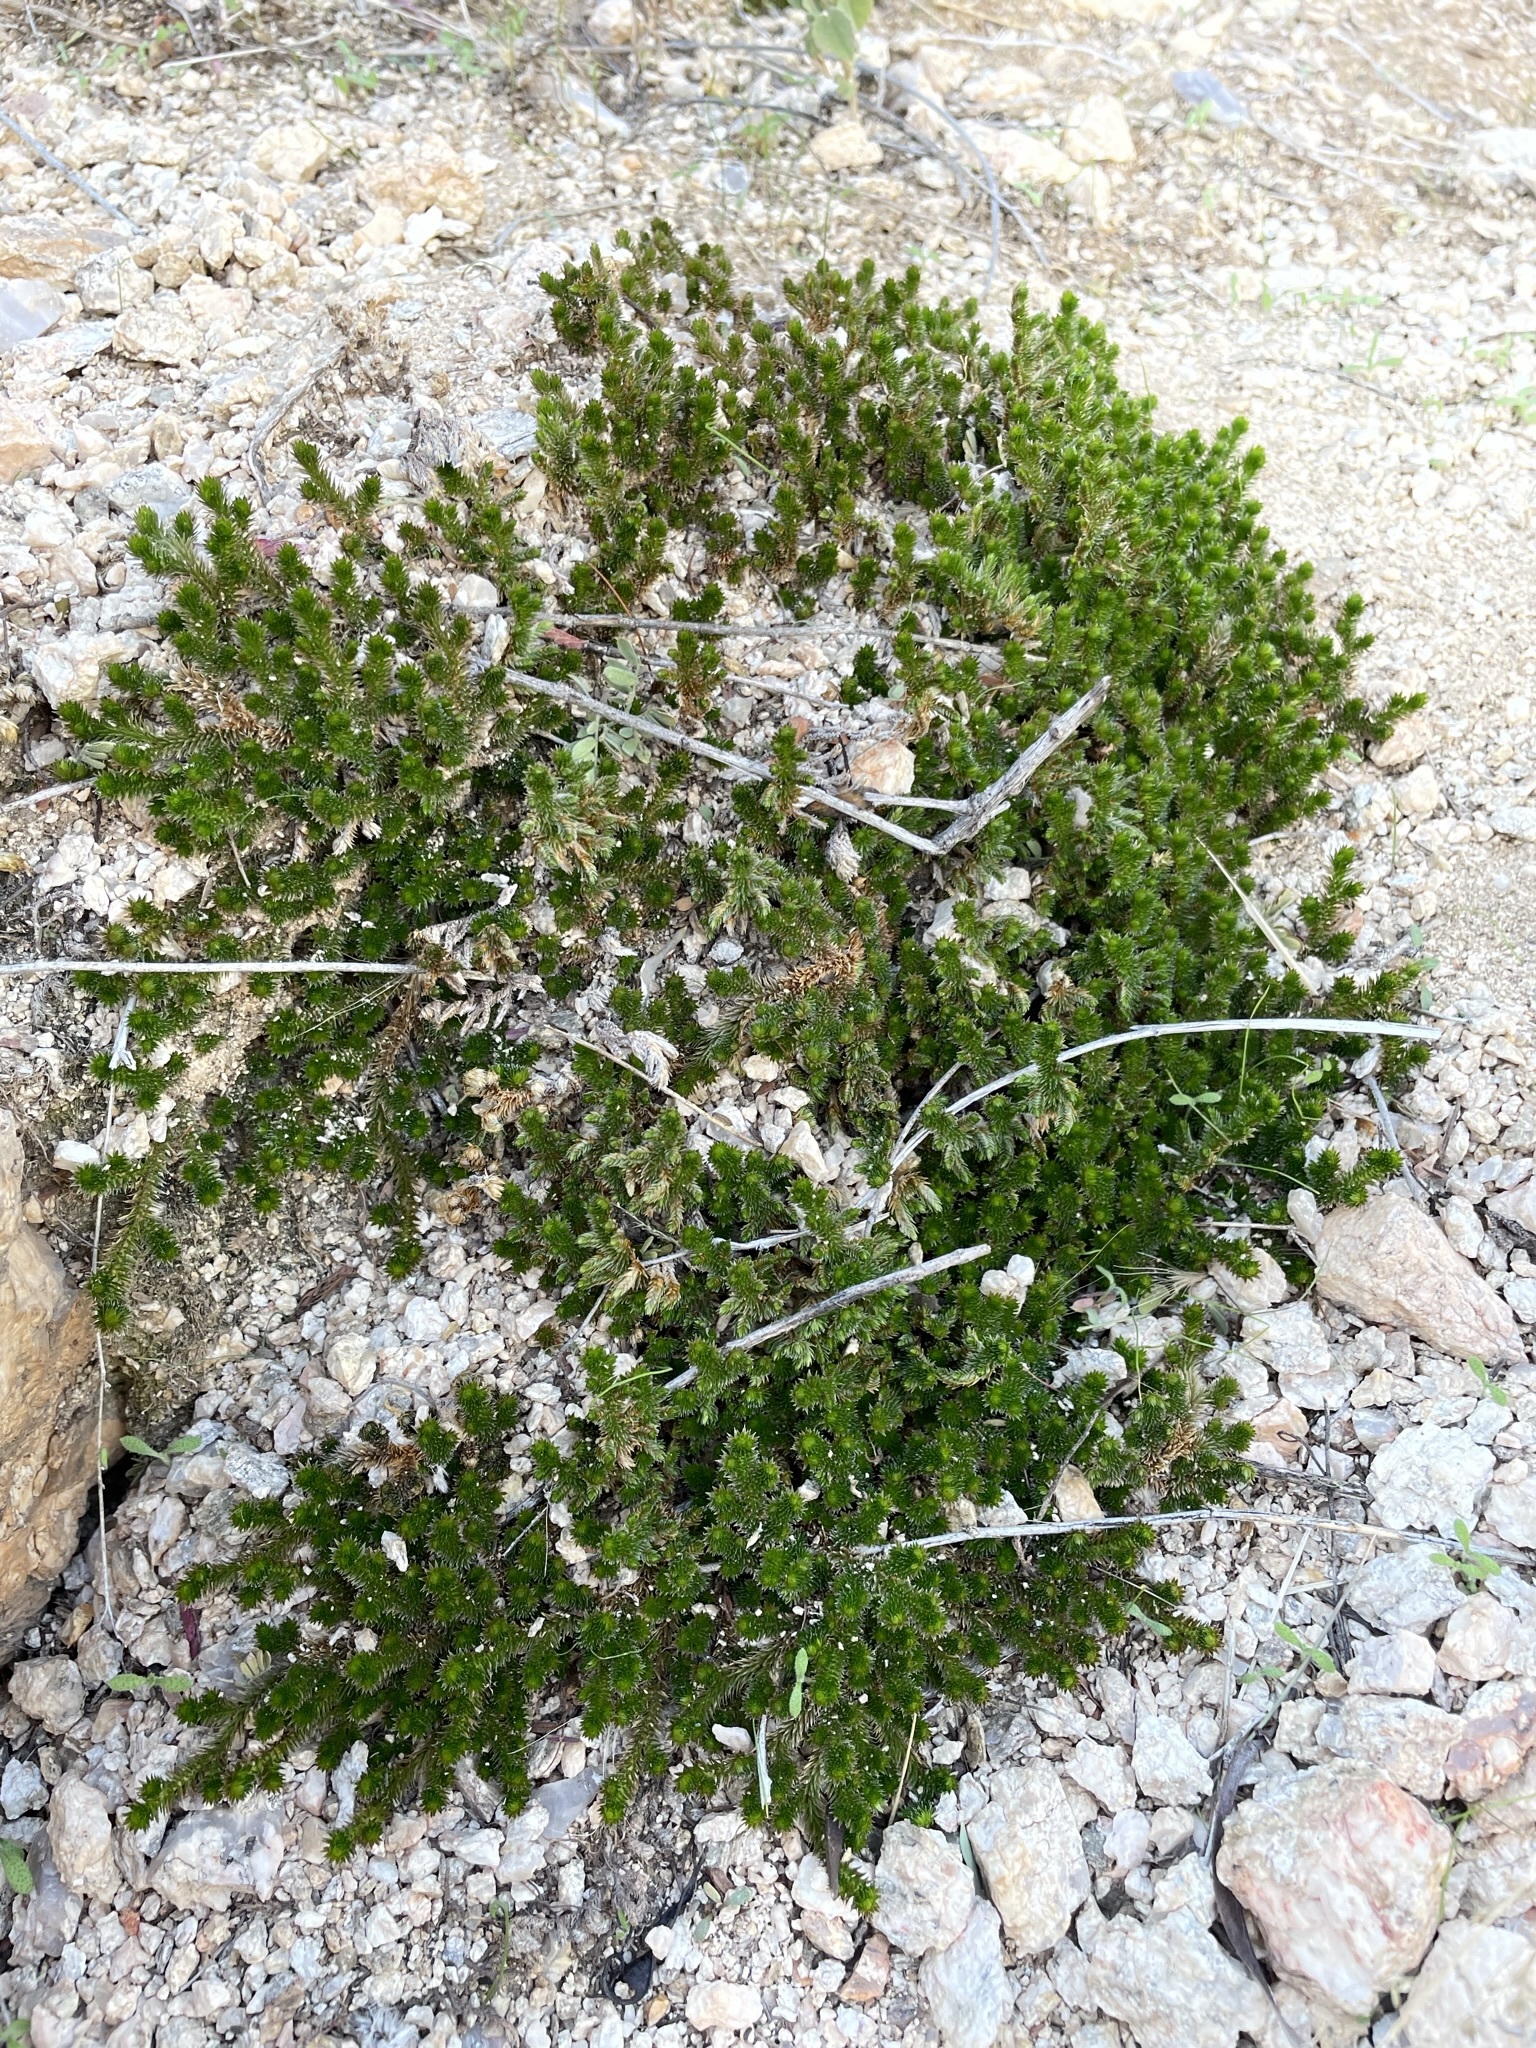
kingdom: Plantae
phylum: Tracheophyta
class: Lycopodiopsida
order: Selaginellales
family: Selaginellaceae
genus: Selaginella
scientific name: Selaginella arizonica
